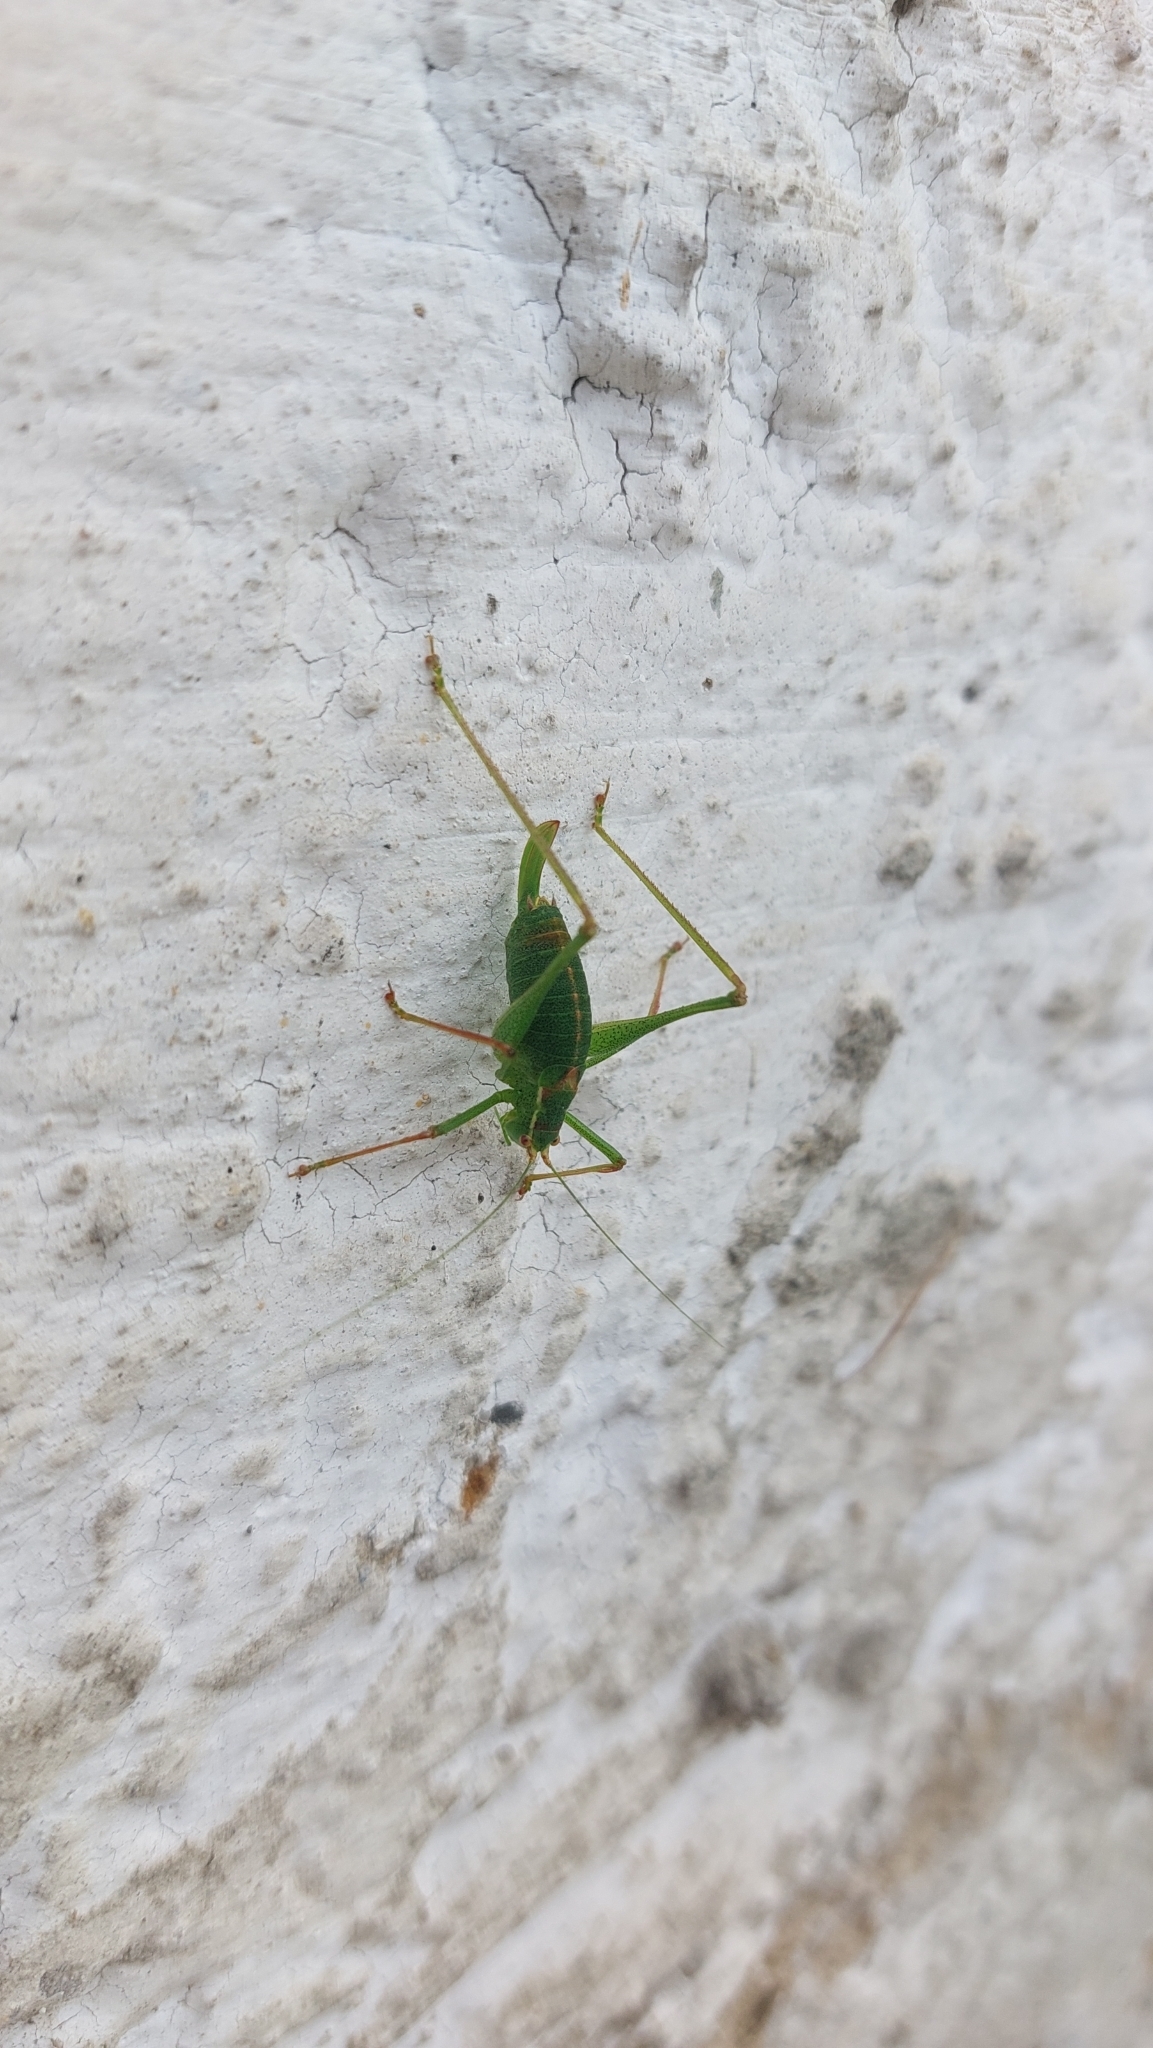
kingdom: Animalia
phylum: Arthropoda
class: Insecta
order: Orthoptera
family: Tettigoniidae
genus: Leptophyes
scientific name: Leptophyes punctatissima
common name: Speckled bush-cricket
